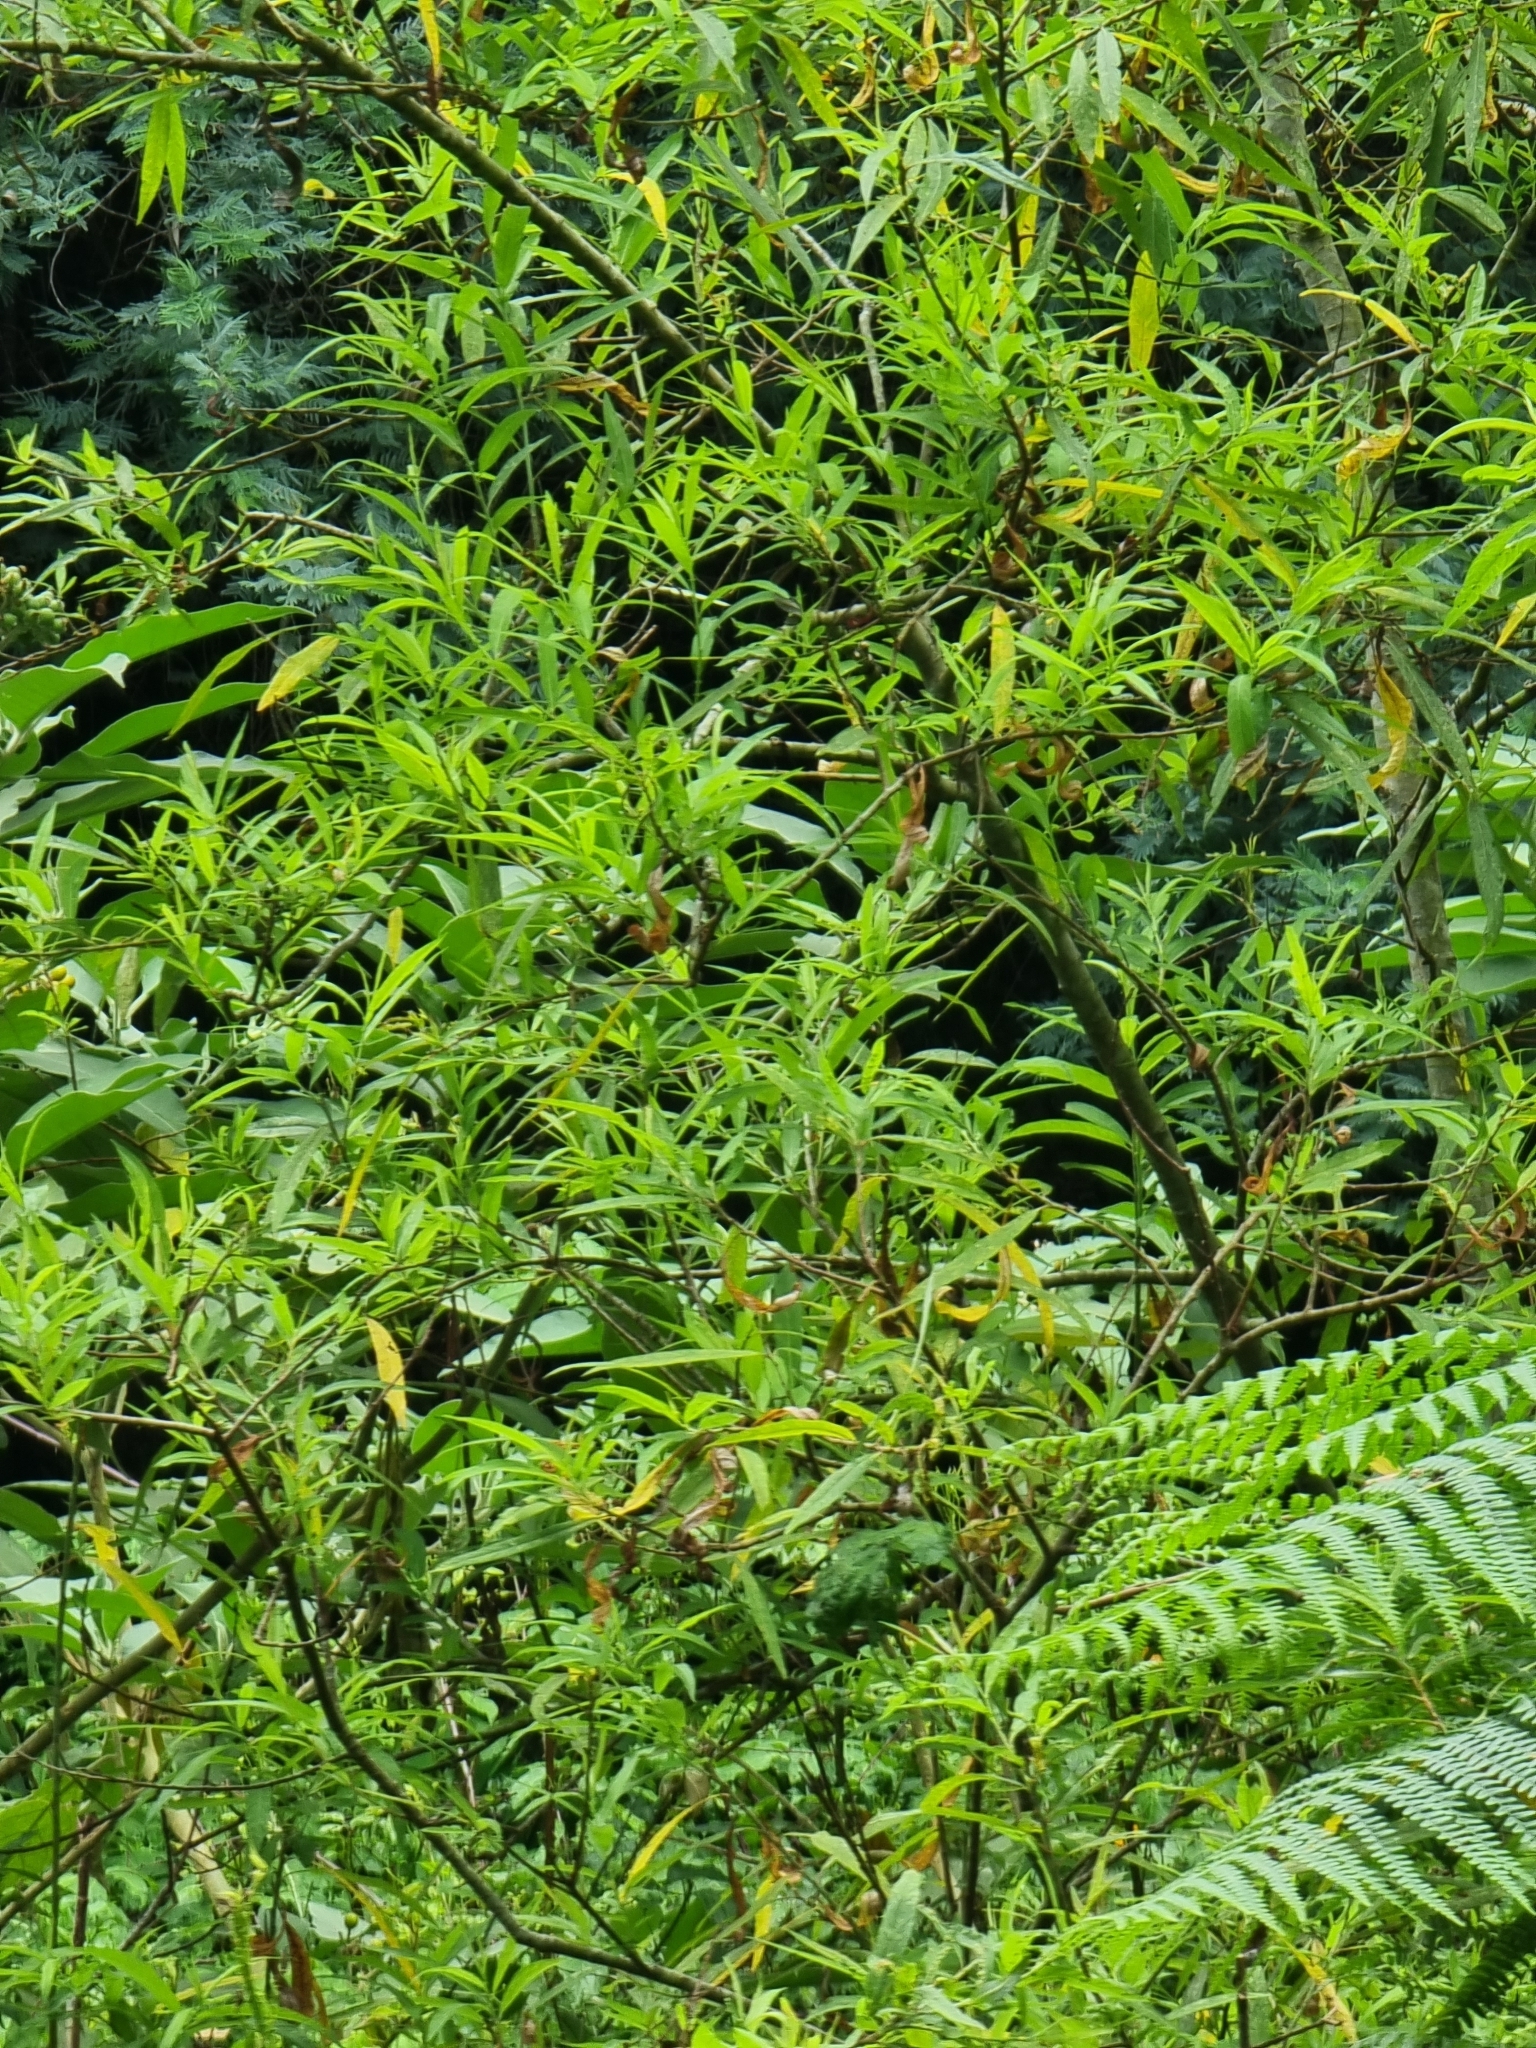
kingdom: Plantae
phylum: Tracheophyta
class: Magnoliopsida
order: Malpighiales
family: Salicaceae
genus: Salix
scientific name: Salix canariensis
